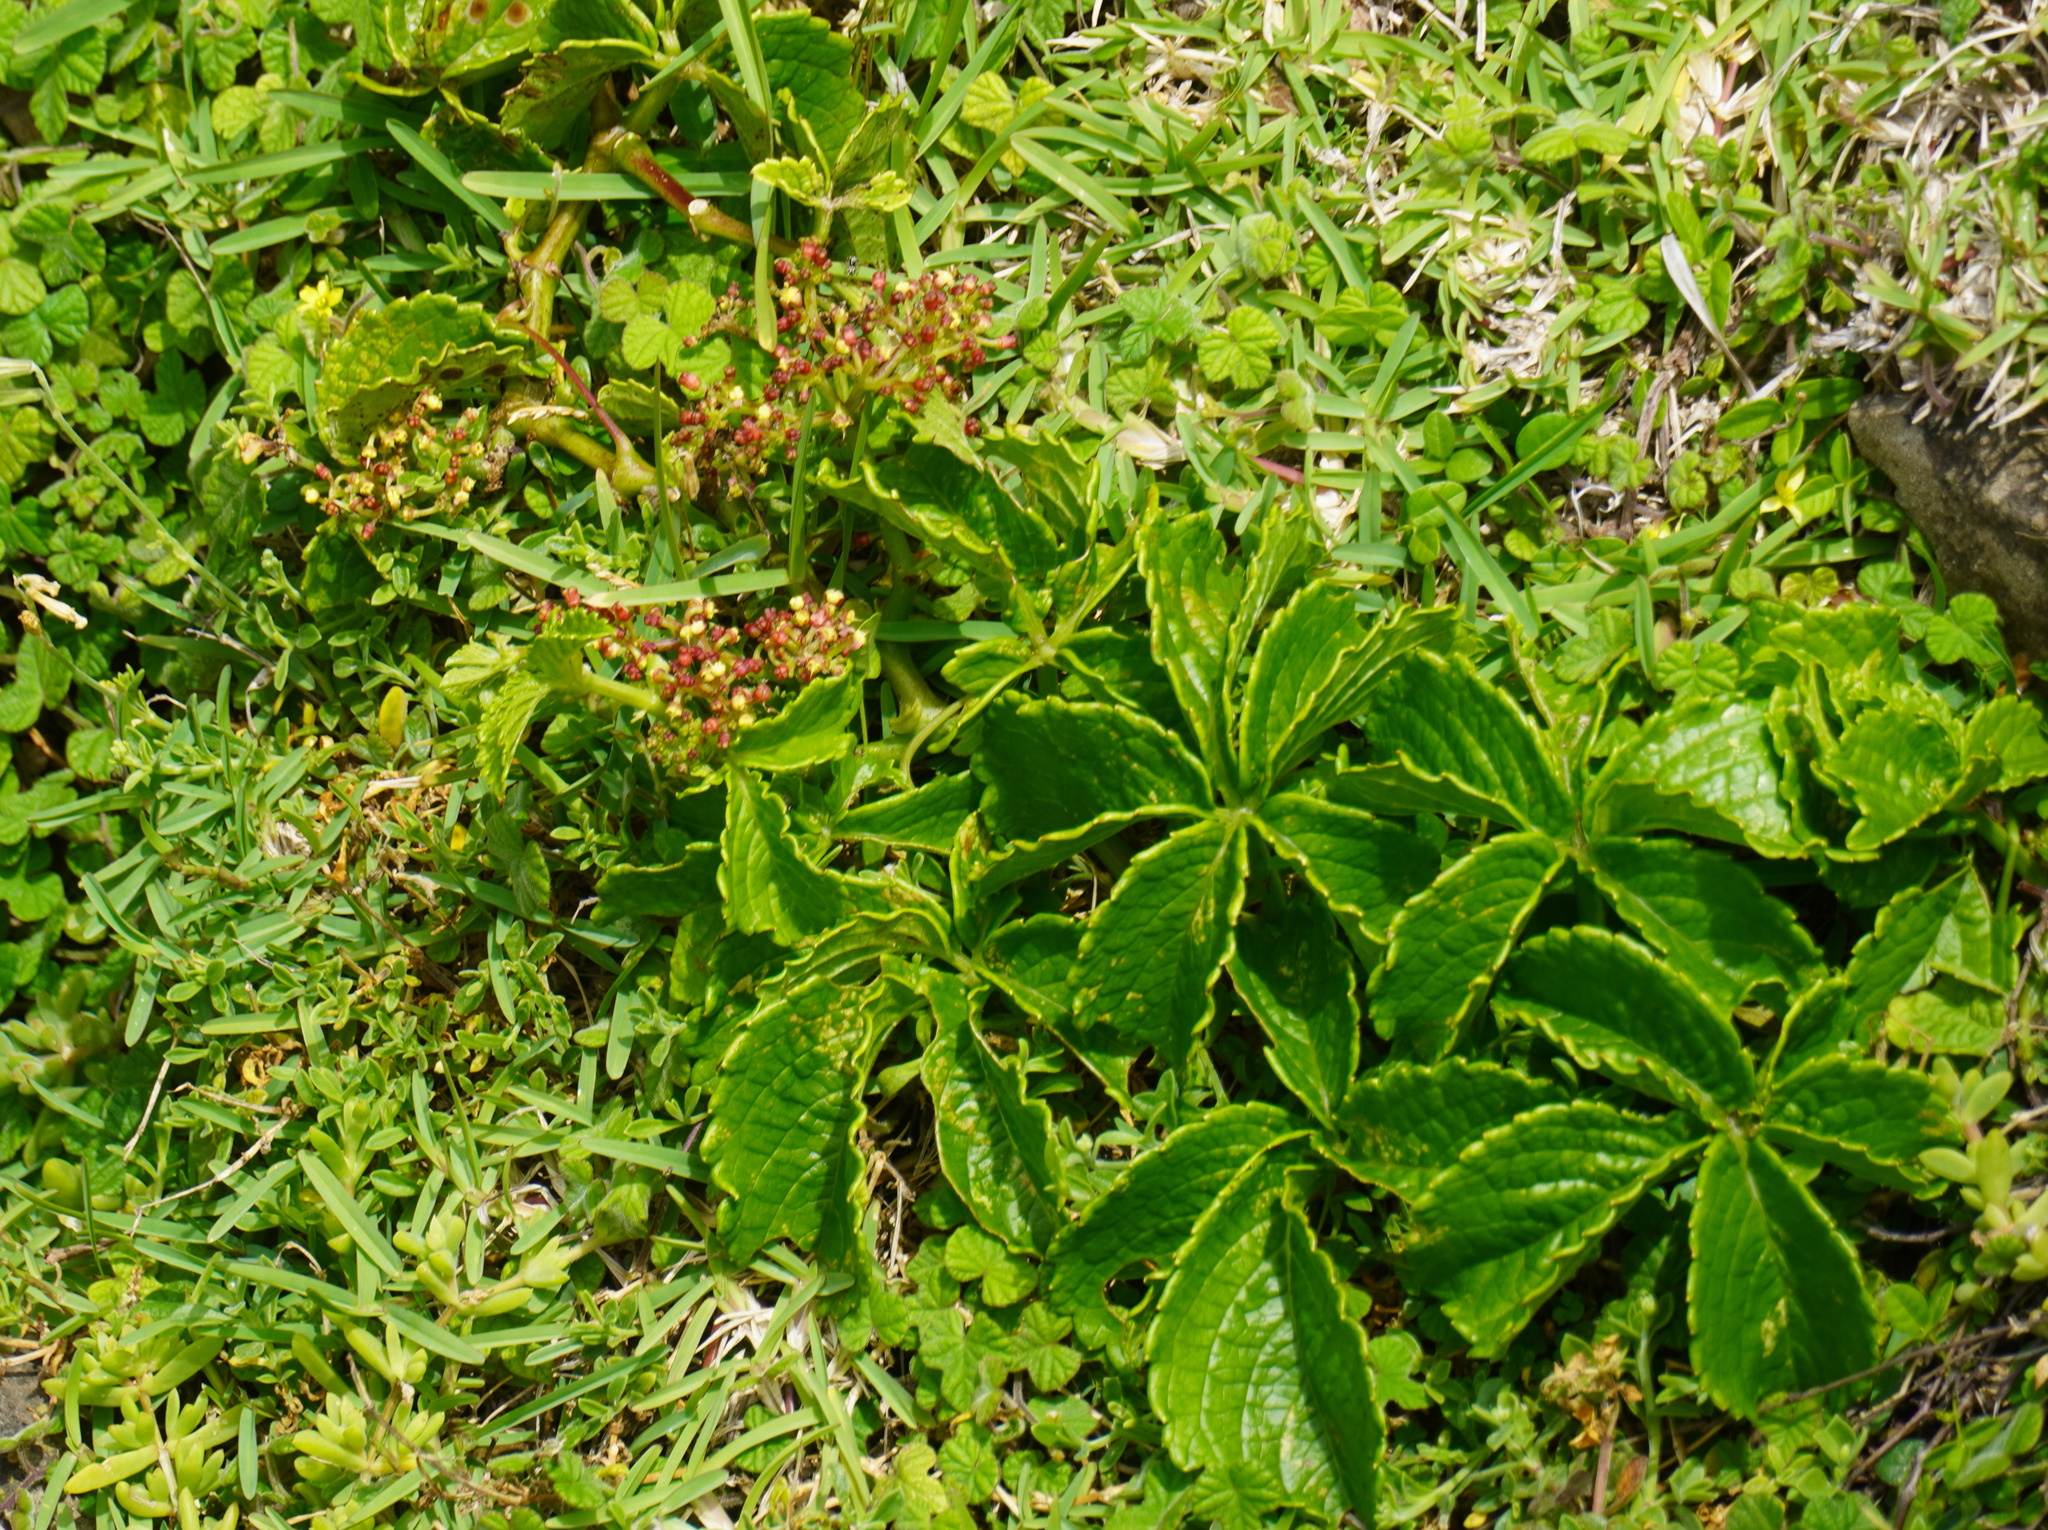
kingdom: Plantae
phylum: Tracheophyta
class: Magnoliopsida
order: Vitales
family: Vitaceae
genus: Cyphostemma
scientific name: Cyphostemma cirrhosum
